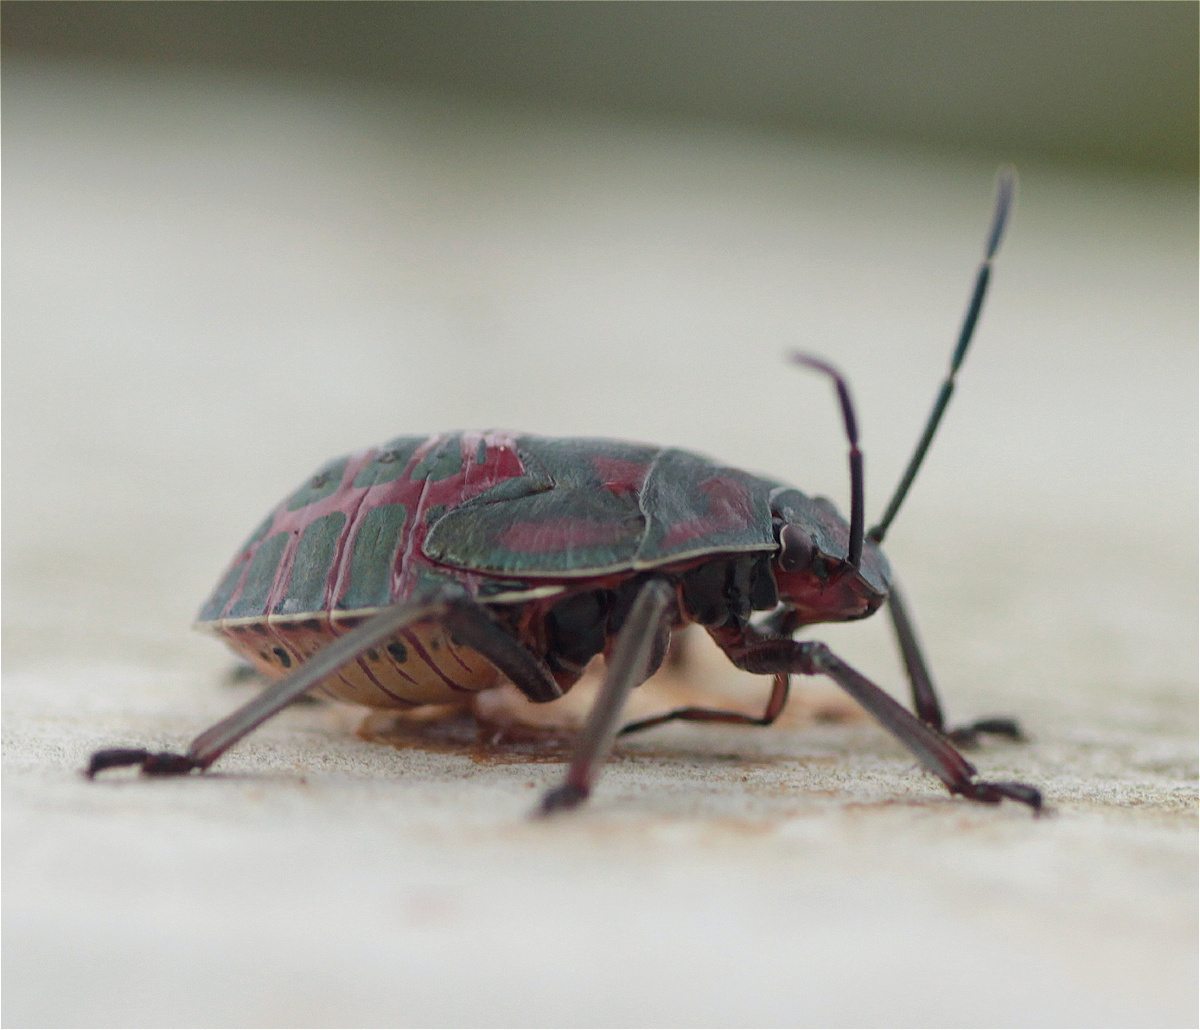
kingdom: Animalia
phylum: Arthropoda
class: Insecta
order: Hemiptera
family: Pentatomidae
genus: Pellaea
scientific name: Pellaea stictica
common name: Stink bug
